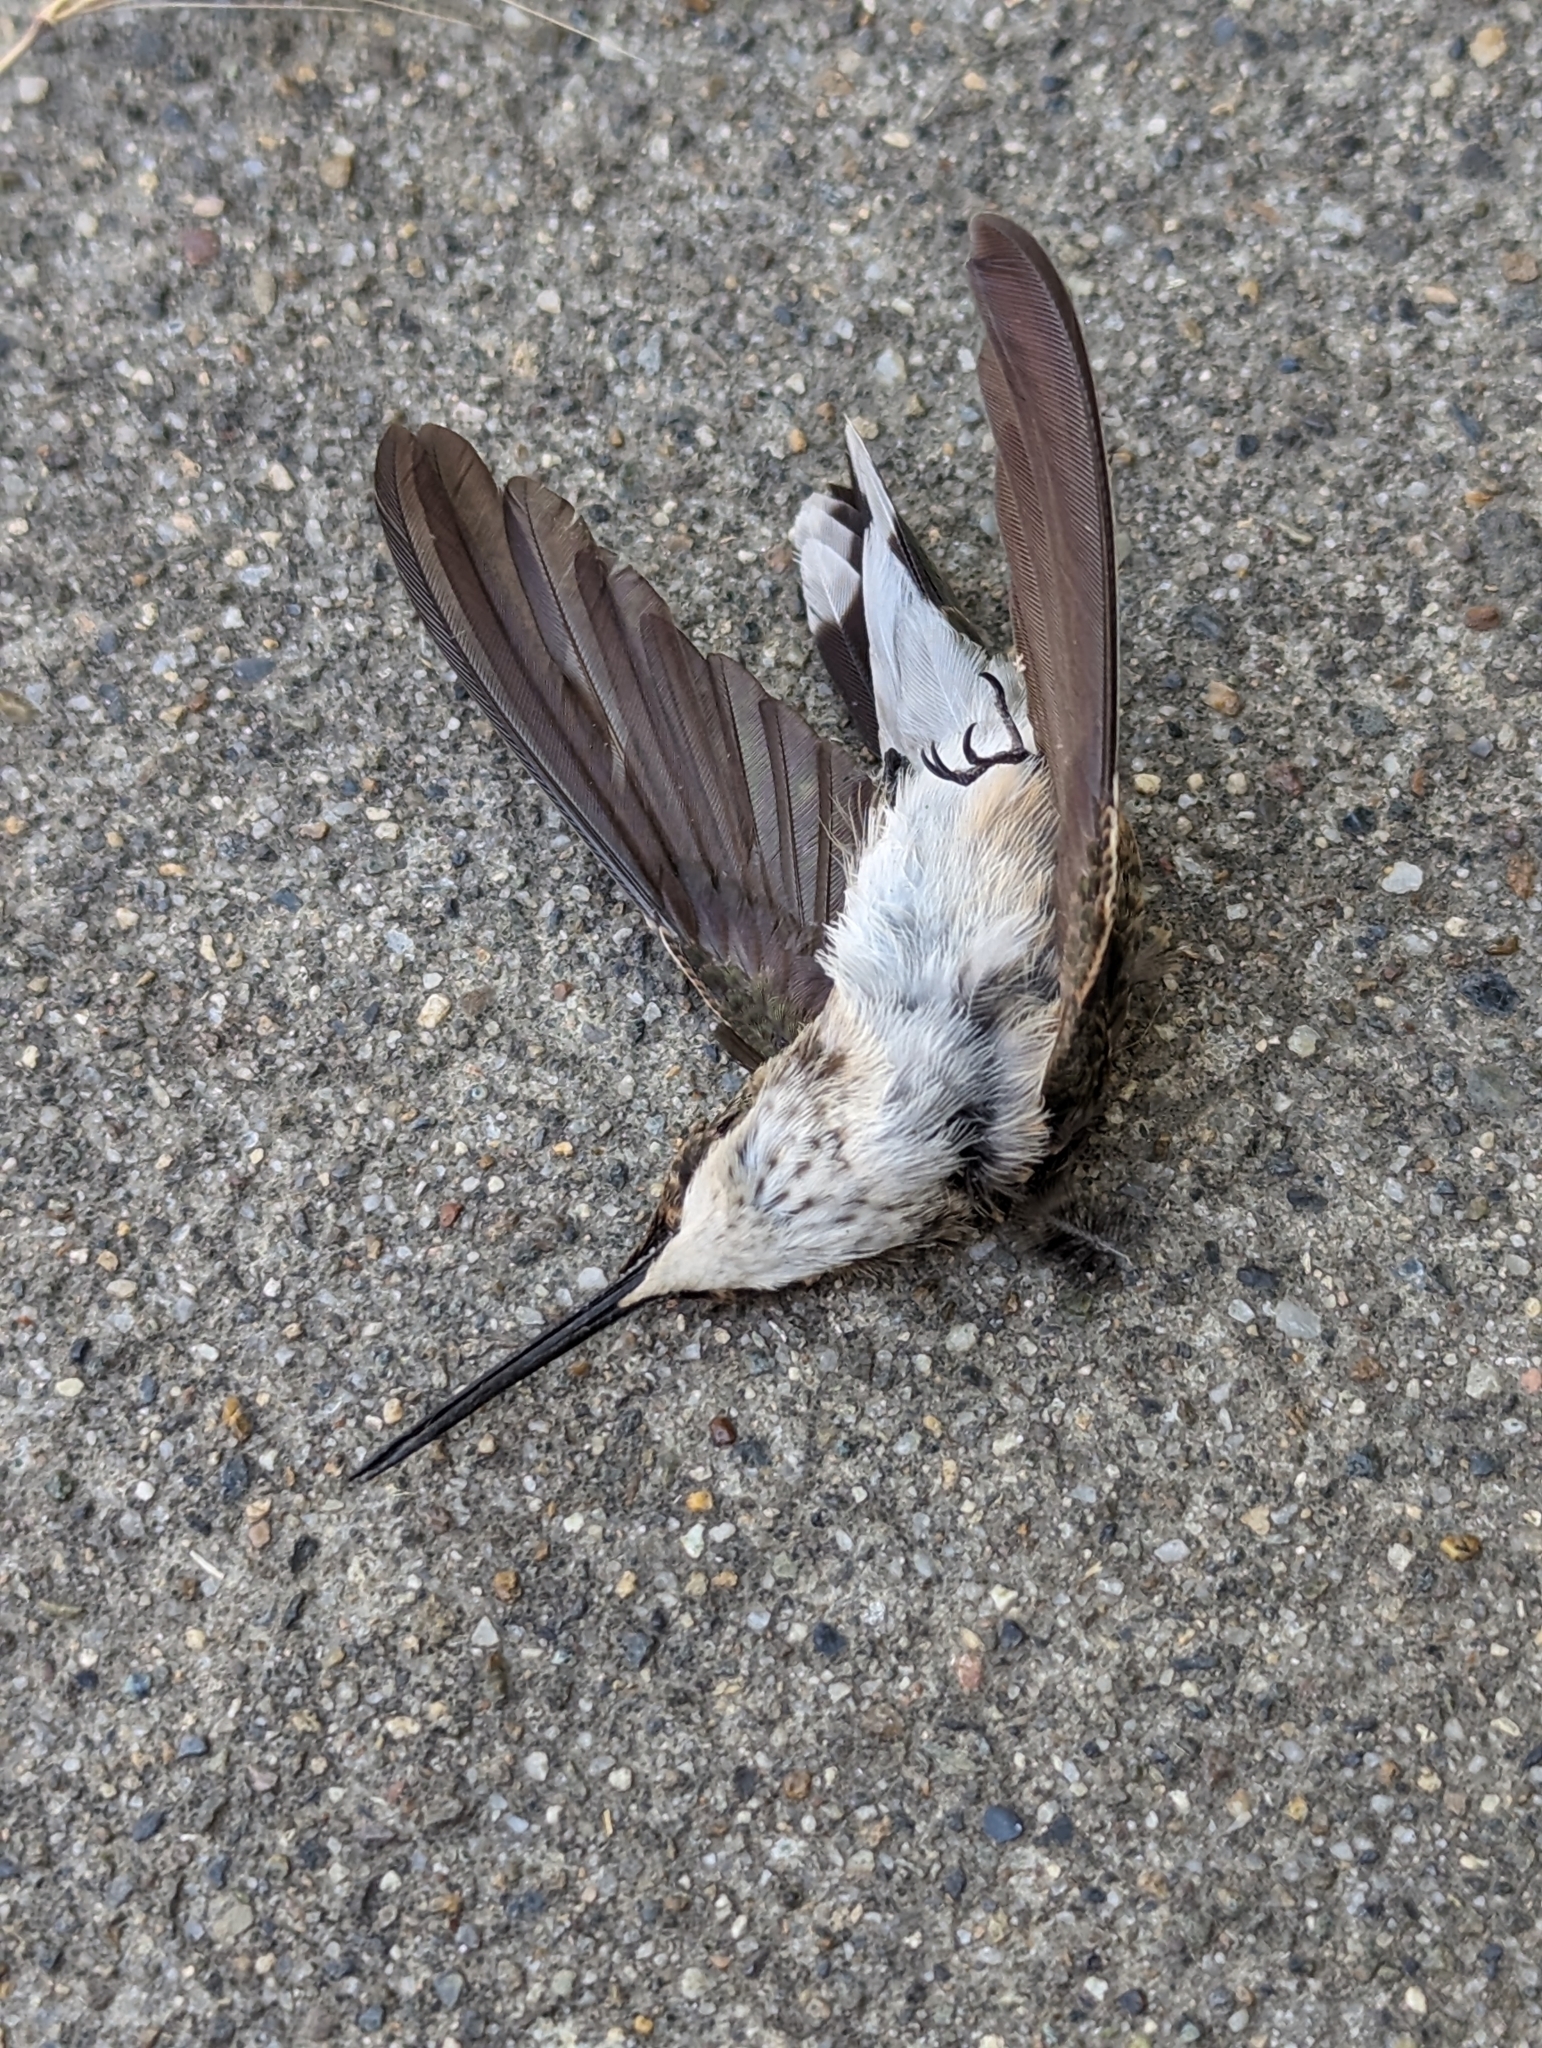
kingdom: Animalia
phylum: Chordata
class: Aves
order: Apodiformes
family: Trochilidae
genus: Archilochus
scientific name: Archilochus alexandri
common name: Black-chinned hummingbird
